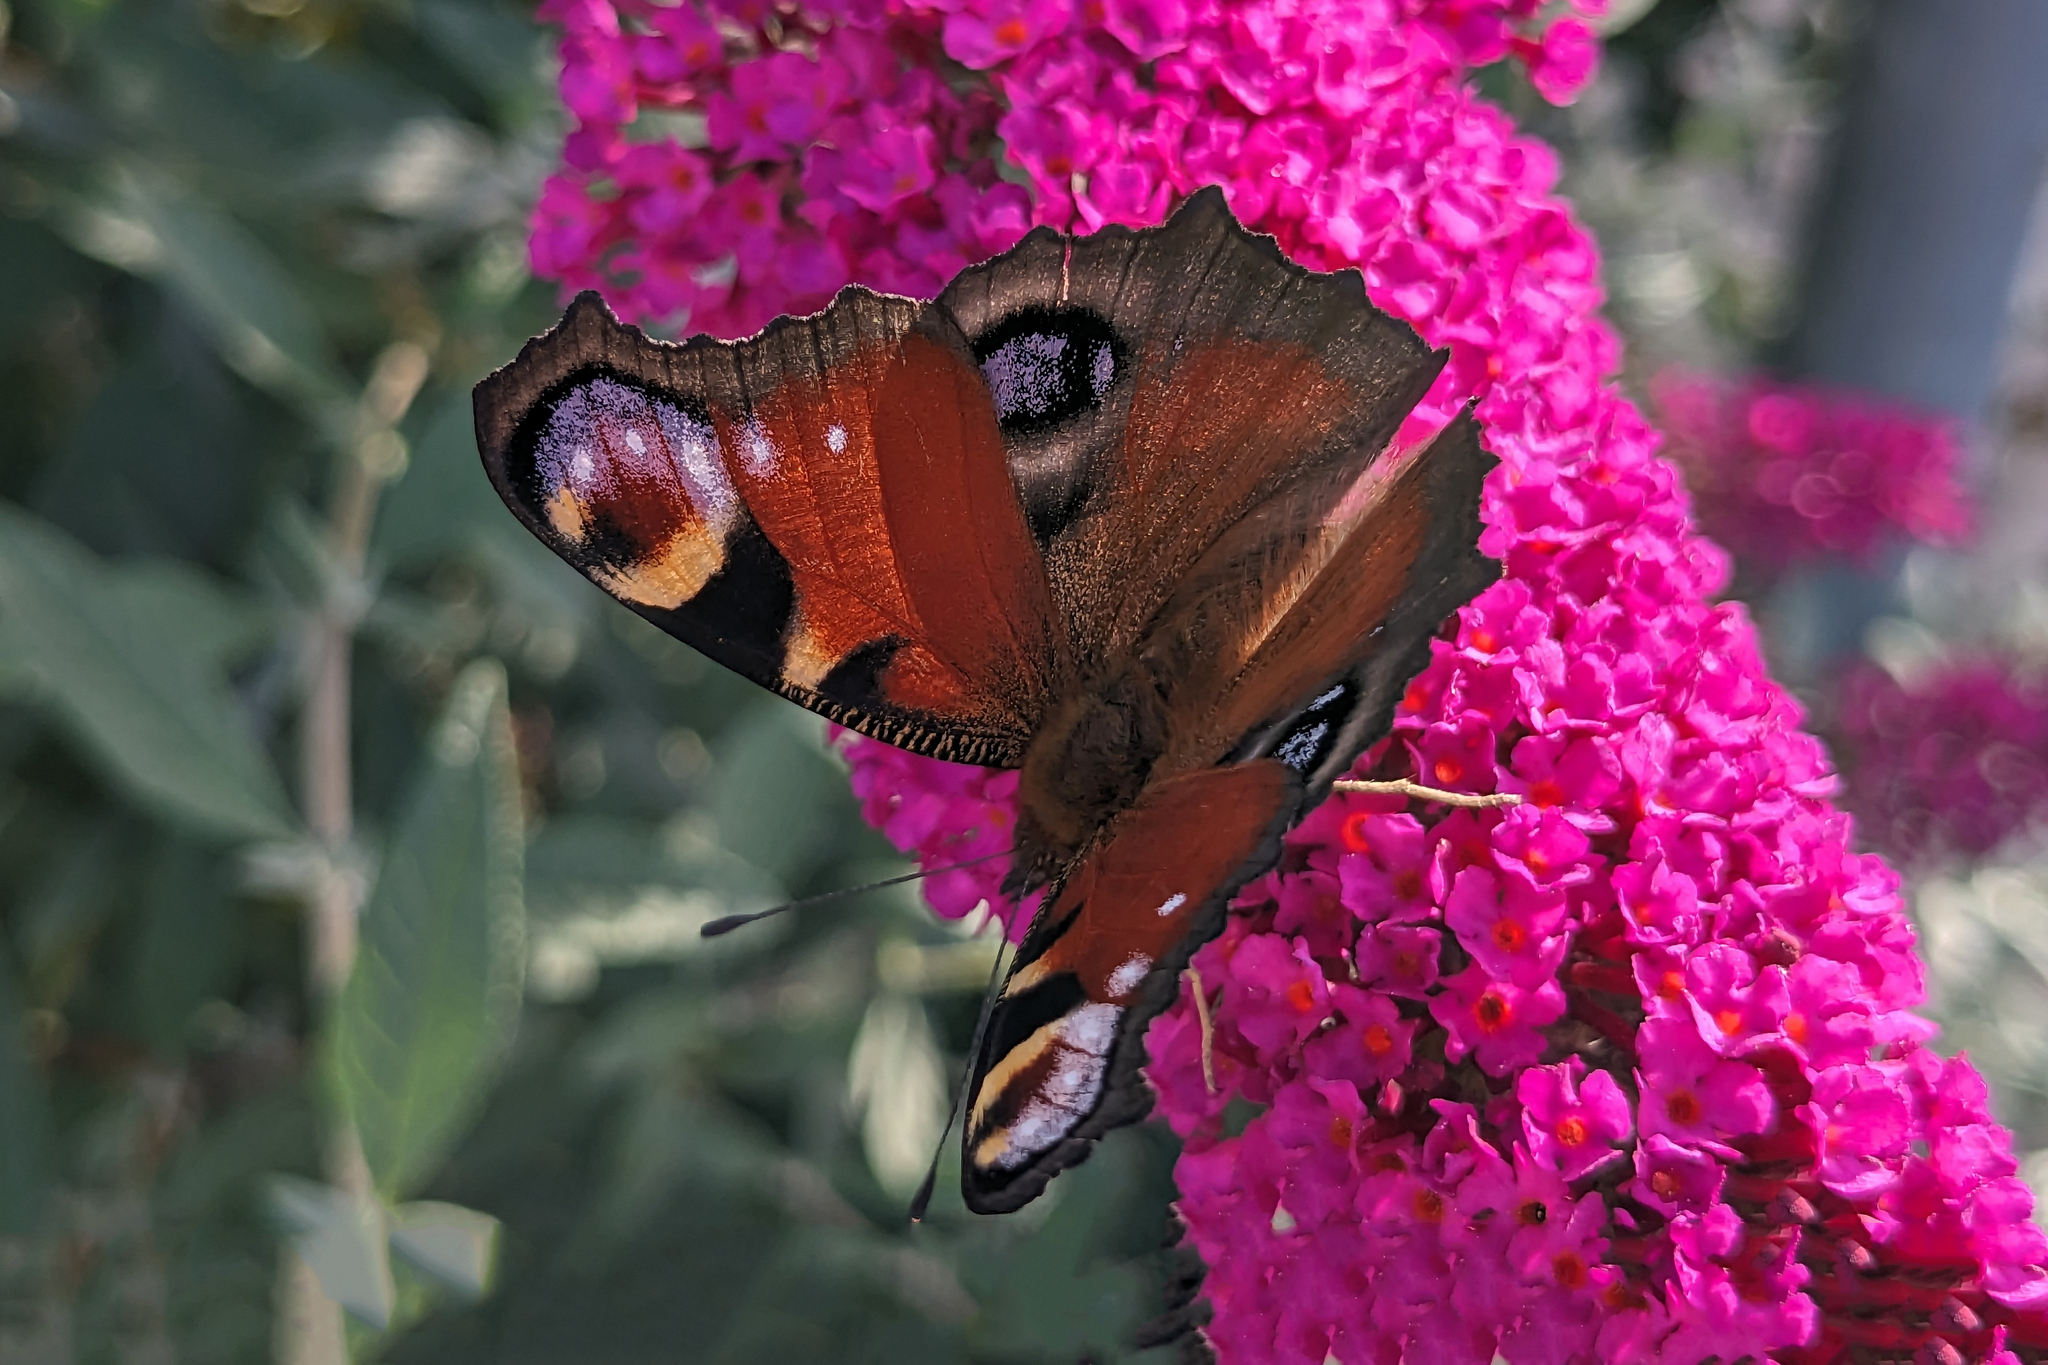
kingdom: Animalia
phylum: Arthropoda
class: Insecta
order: Lepidoptera
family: Nymphalidae
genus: Aglais
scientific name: Aglais io
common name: Peacock
